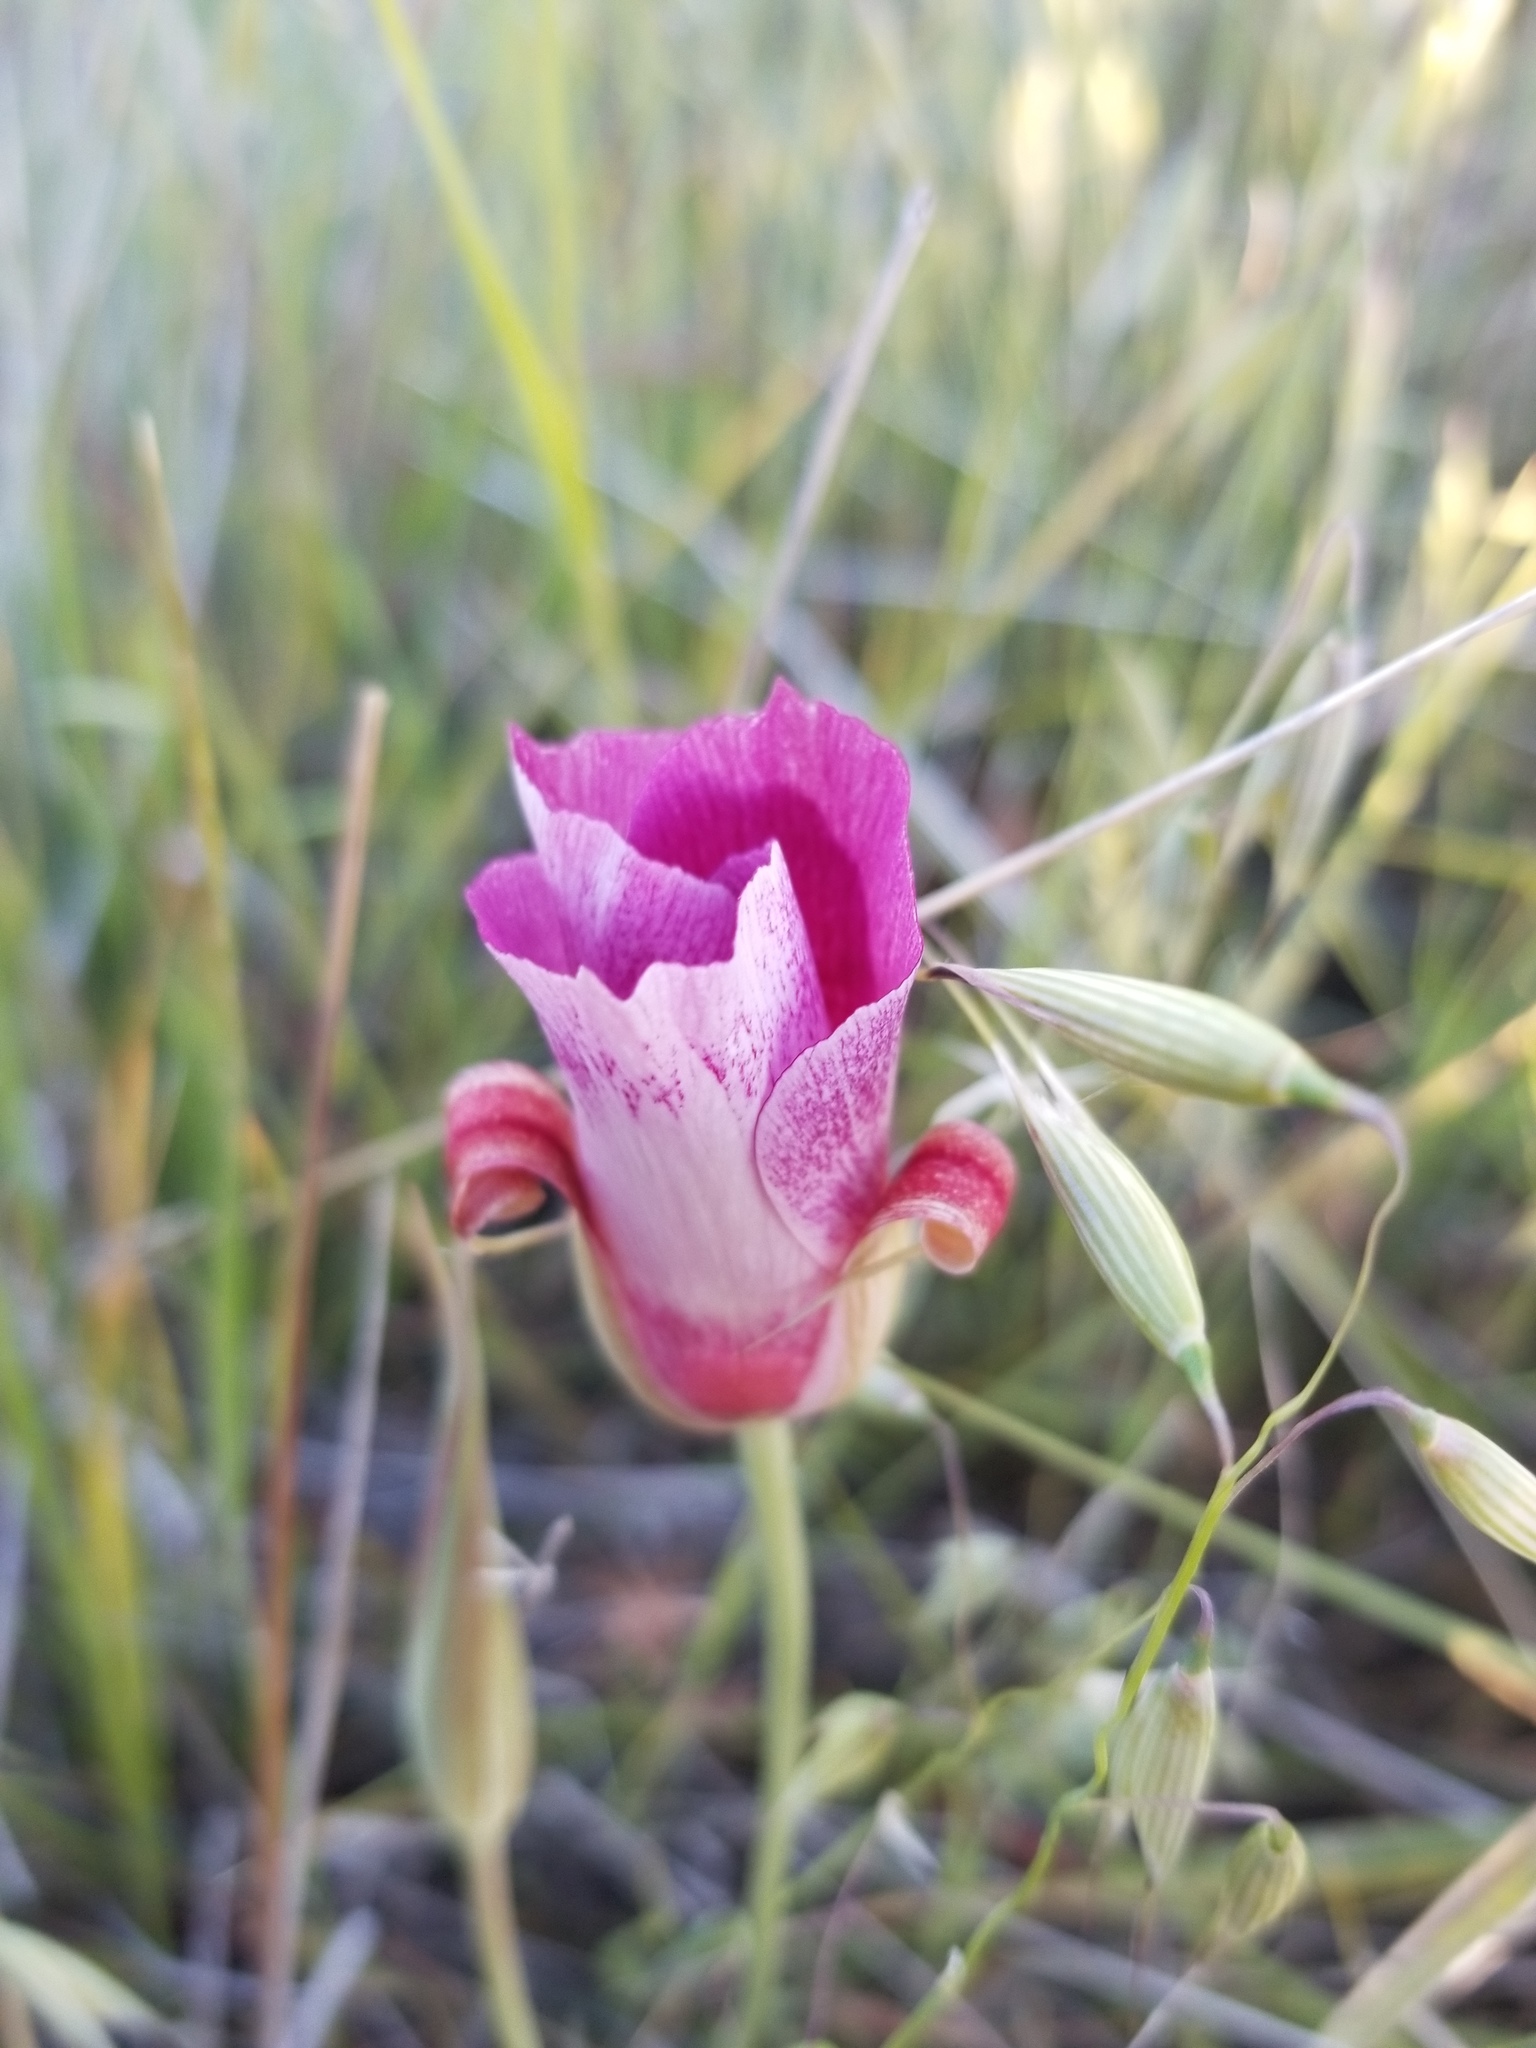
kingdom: Plantae
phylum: Tracheophyta
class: Liliopsida
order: Liliales
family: Liliaceae
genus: Calochortus
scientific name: Calochortus venustus
